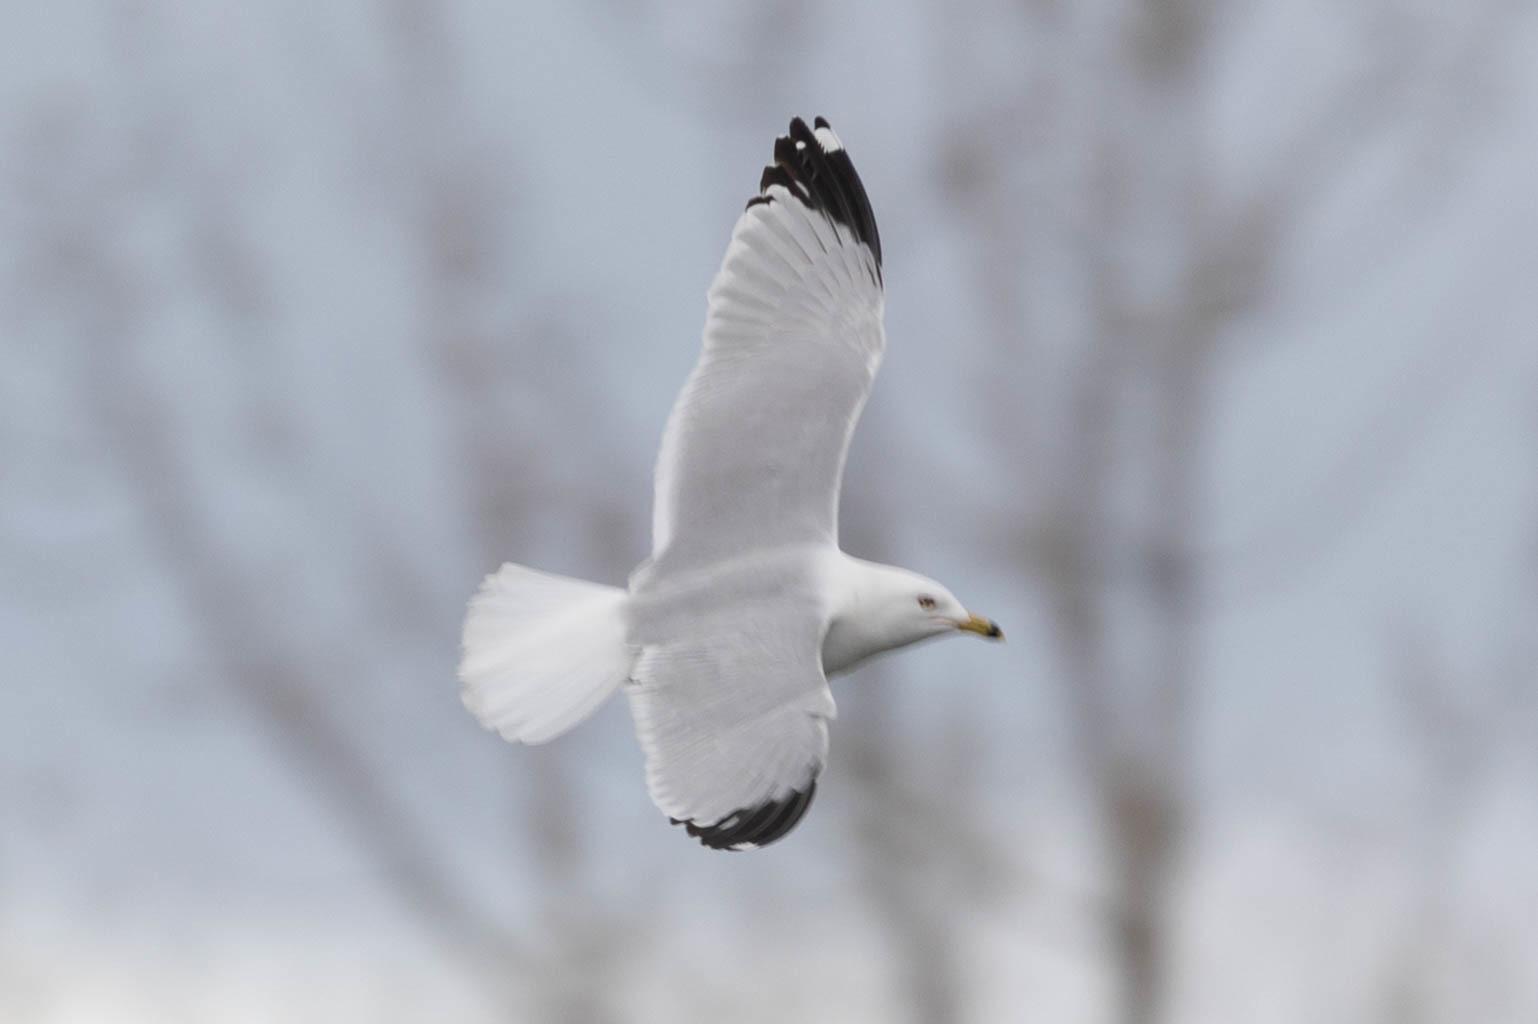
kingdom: Animalia
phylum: Chordata
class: Aves
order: Charadriiformes
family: Laridae
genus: Larus
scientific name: Larus delawarensis
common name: Ring-billed gull
